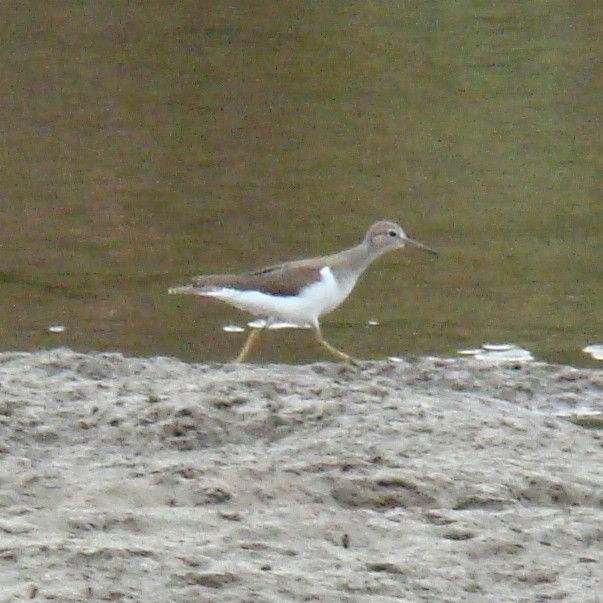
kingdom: Animalia
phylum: Chordata
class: Aves
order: Charadriiformes
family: Scolopacidae
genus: Actitis
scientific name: Actitis hypoleucos
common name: Common sandpiper
